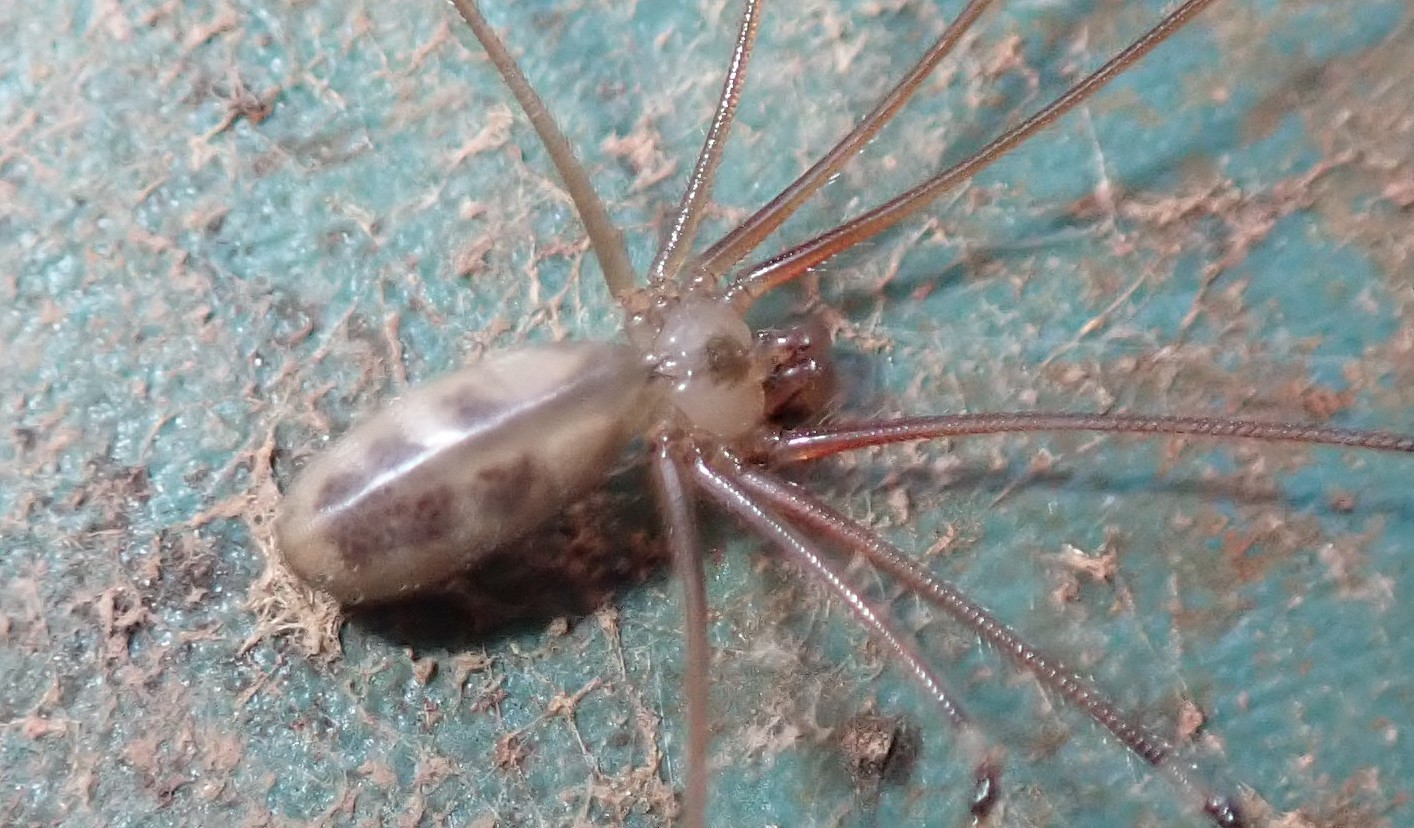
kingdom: Animalia
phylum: Arthropoda
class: Arachnida
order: Araneae
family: Pholcidae
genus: Pholcus
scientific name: Pholcus phalangioides
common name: Longbodied cellar spider
